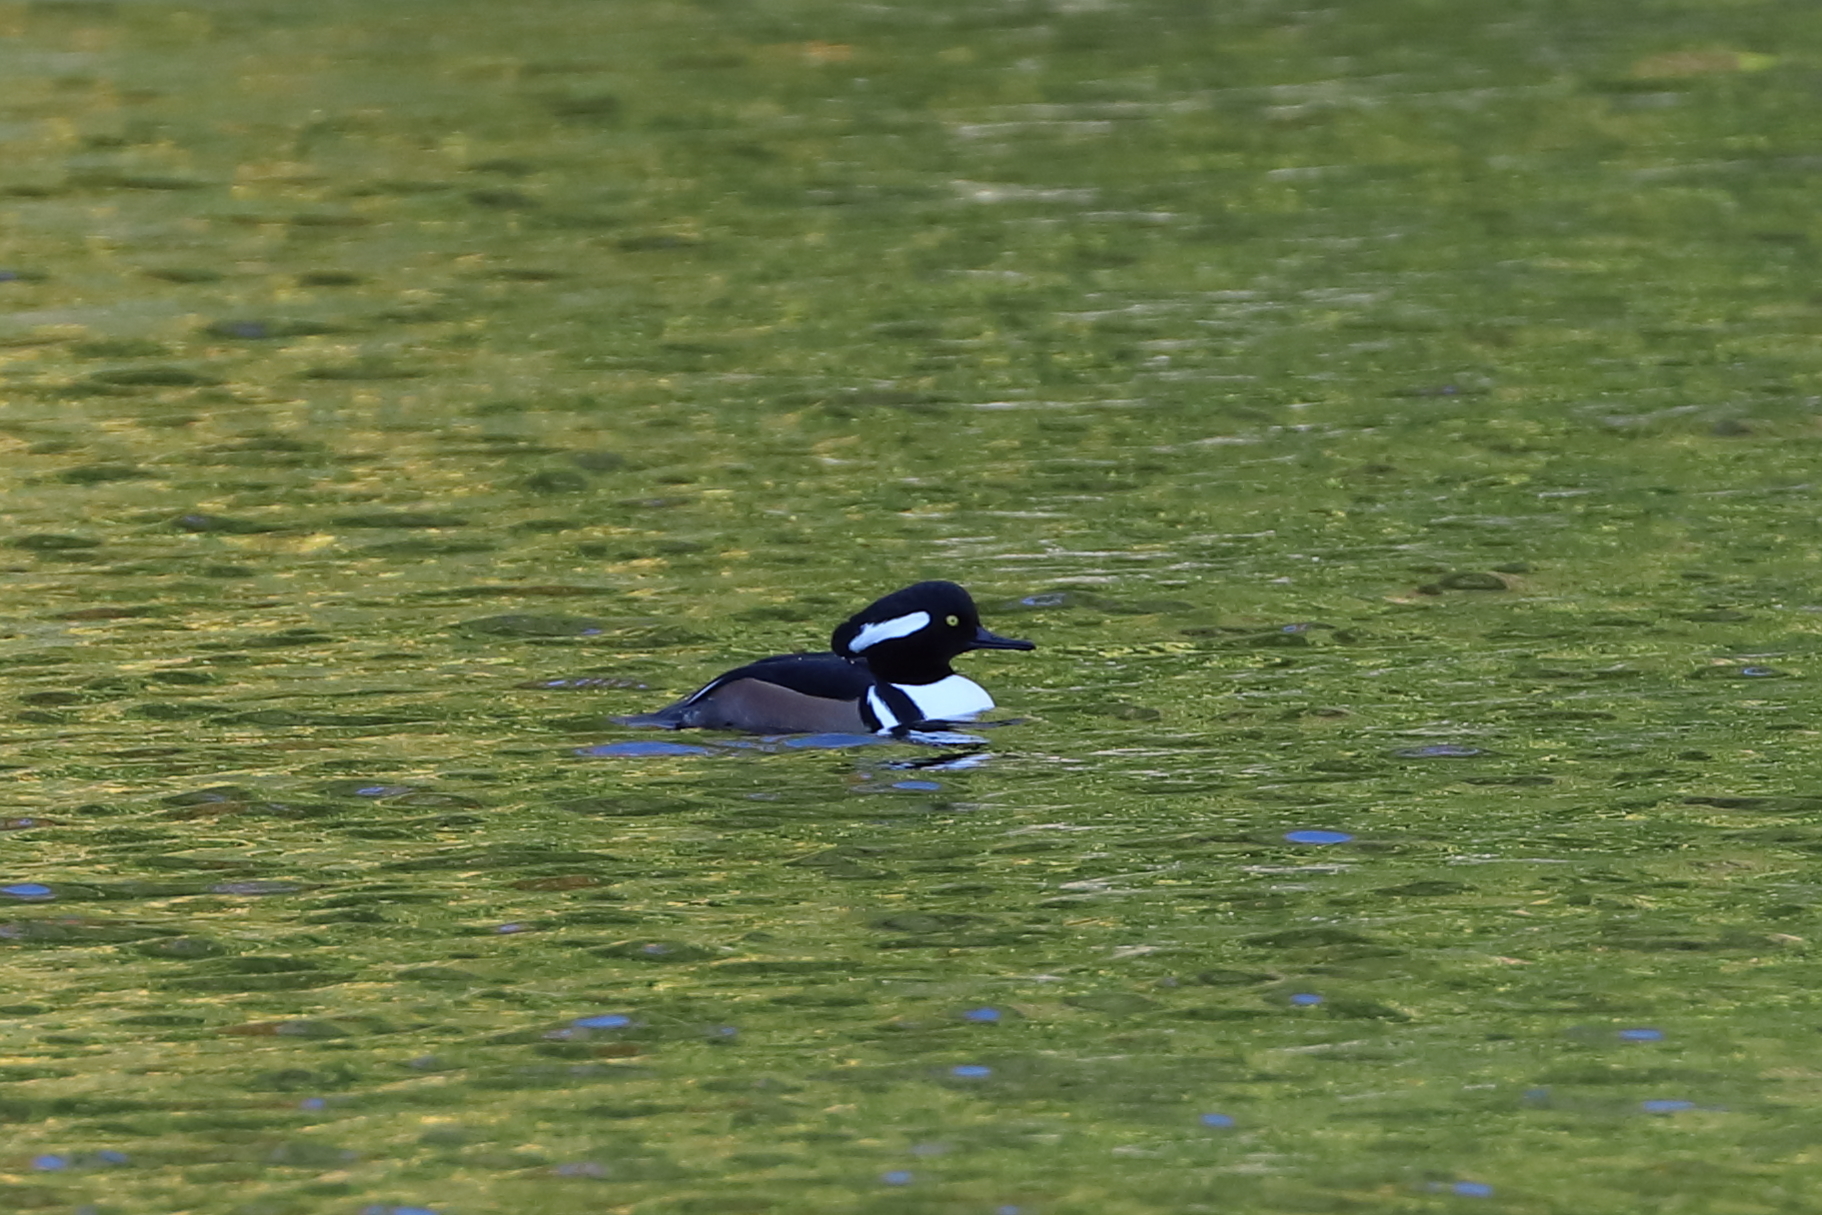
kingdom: Animalia
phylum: Chordata
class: Aves
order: Anseriformes
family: Anatidae
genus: Lophodytes
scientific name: Lophodytes cucullatus
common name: Hooded merganser
